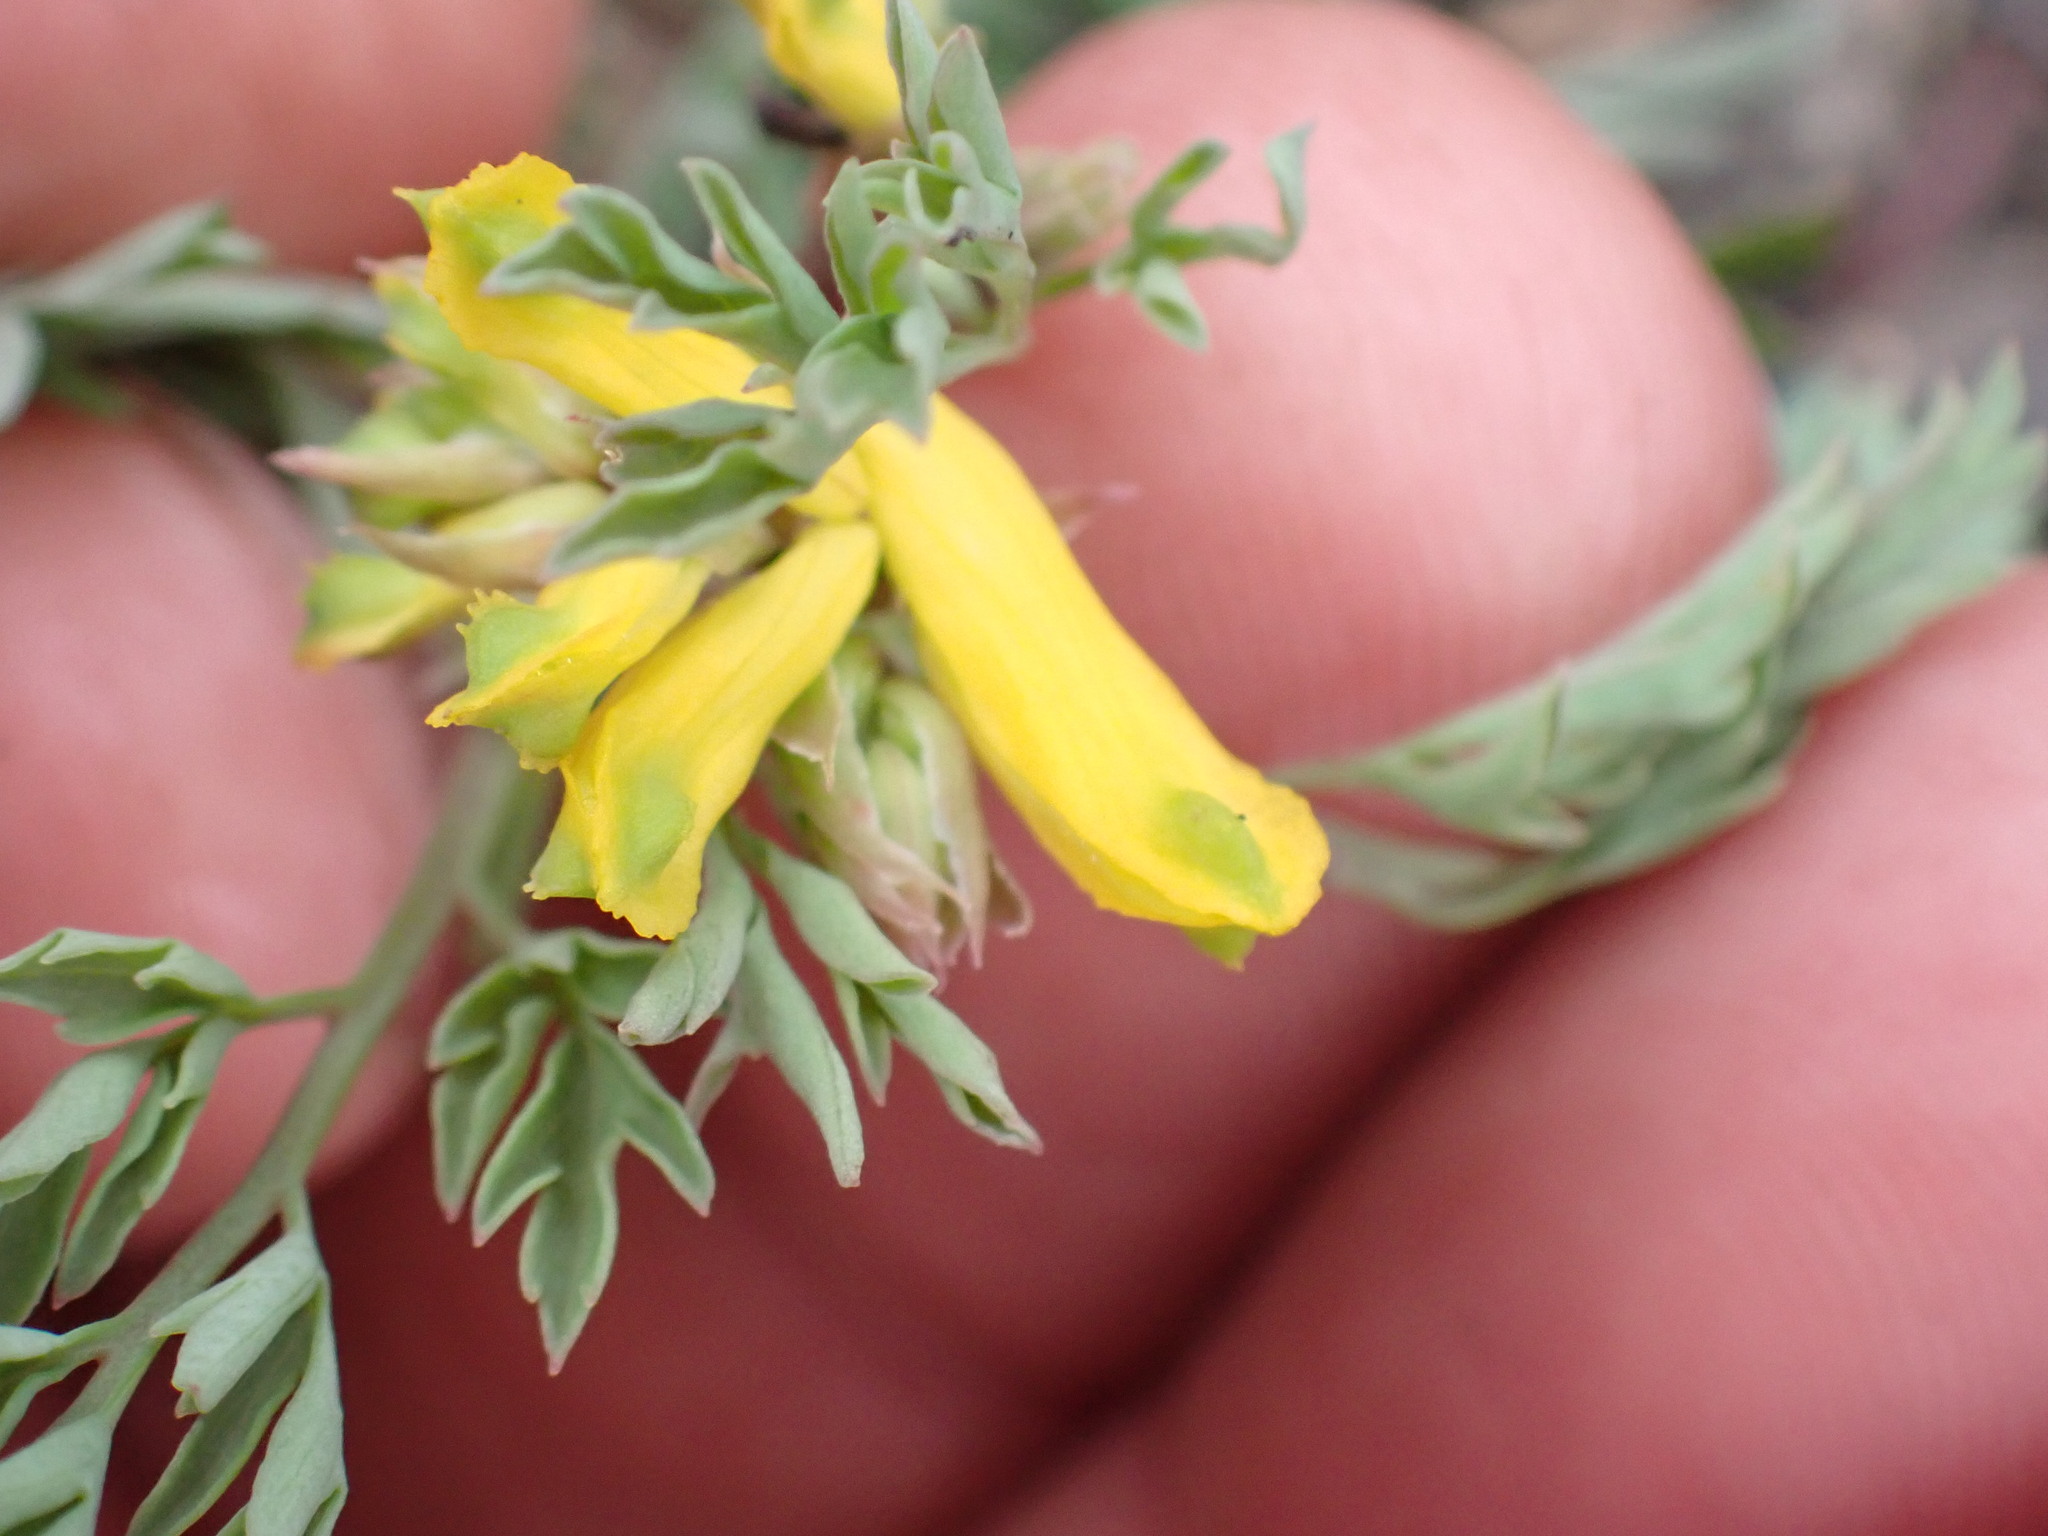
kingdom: Plantae
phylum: Tracheophyta
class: Magnoliopsida
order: Ranunculales
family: Papaveraceae
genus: Corydalis
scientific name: Corydalis aurea
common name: Golden corydalis
